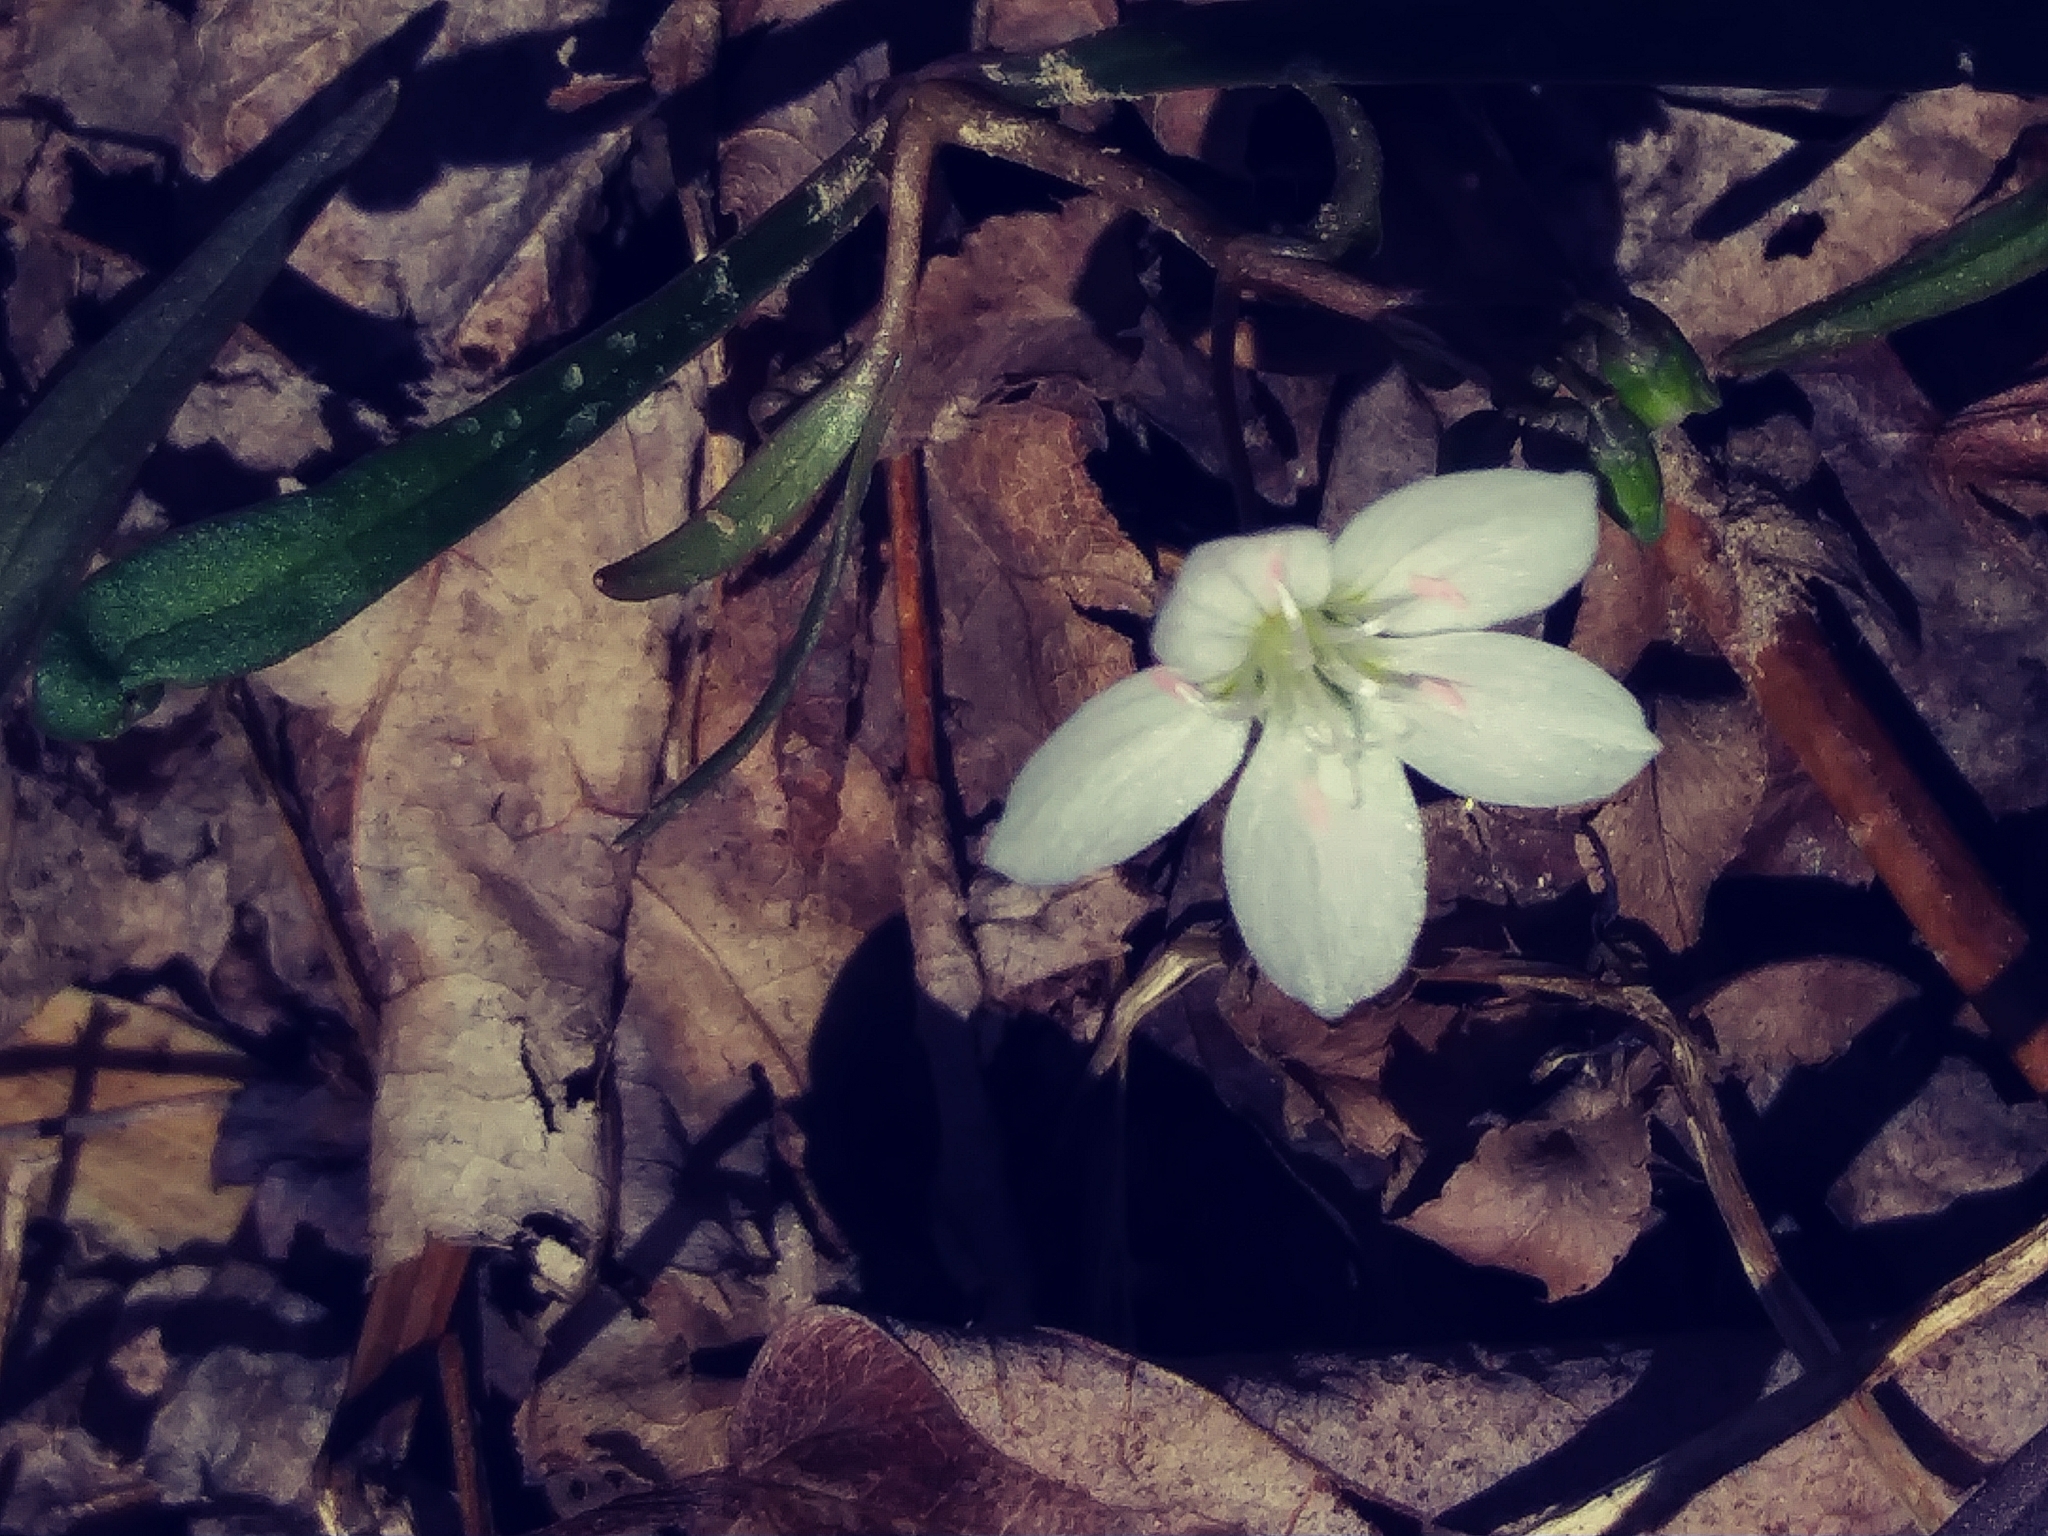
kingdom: Plantae
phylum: Tracheophyta
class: Magnoliopsida
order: Caryophyllales
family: Montiaceae
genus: Claytonia
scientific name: Claytonia virginica
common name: Virginia springbeauty
